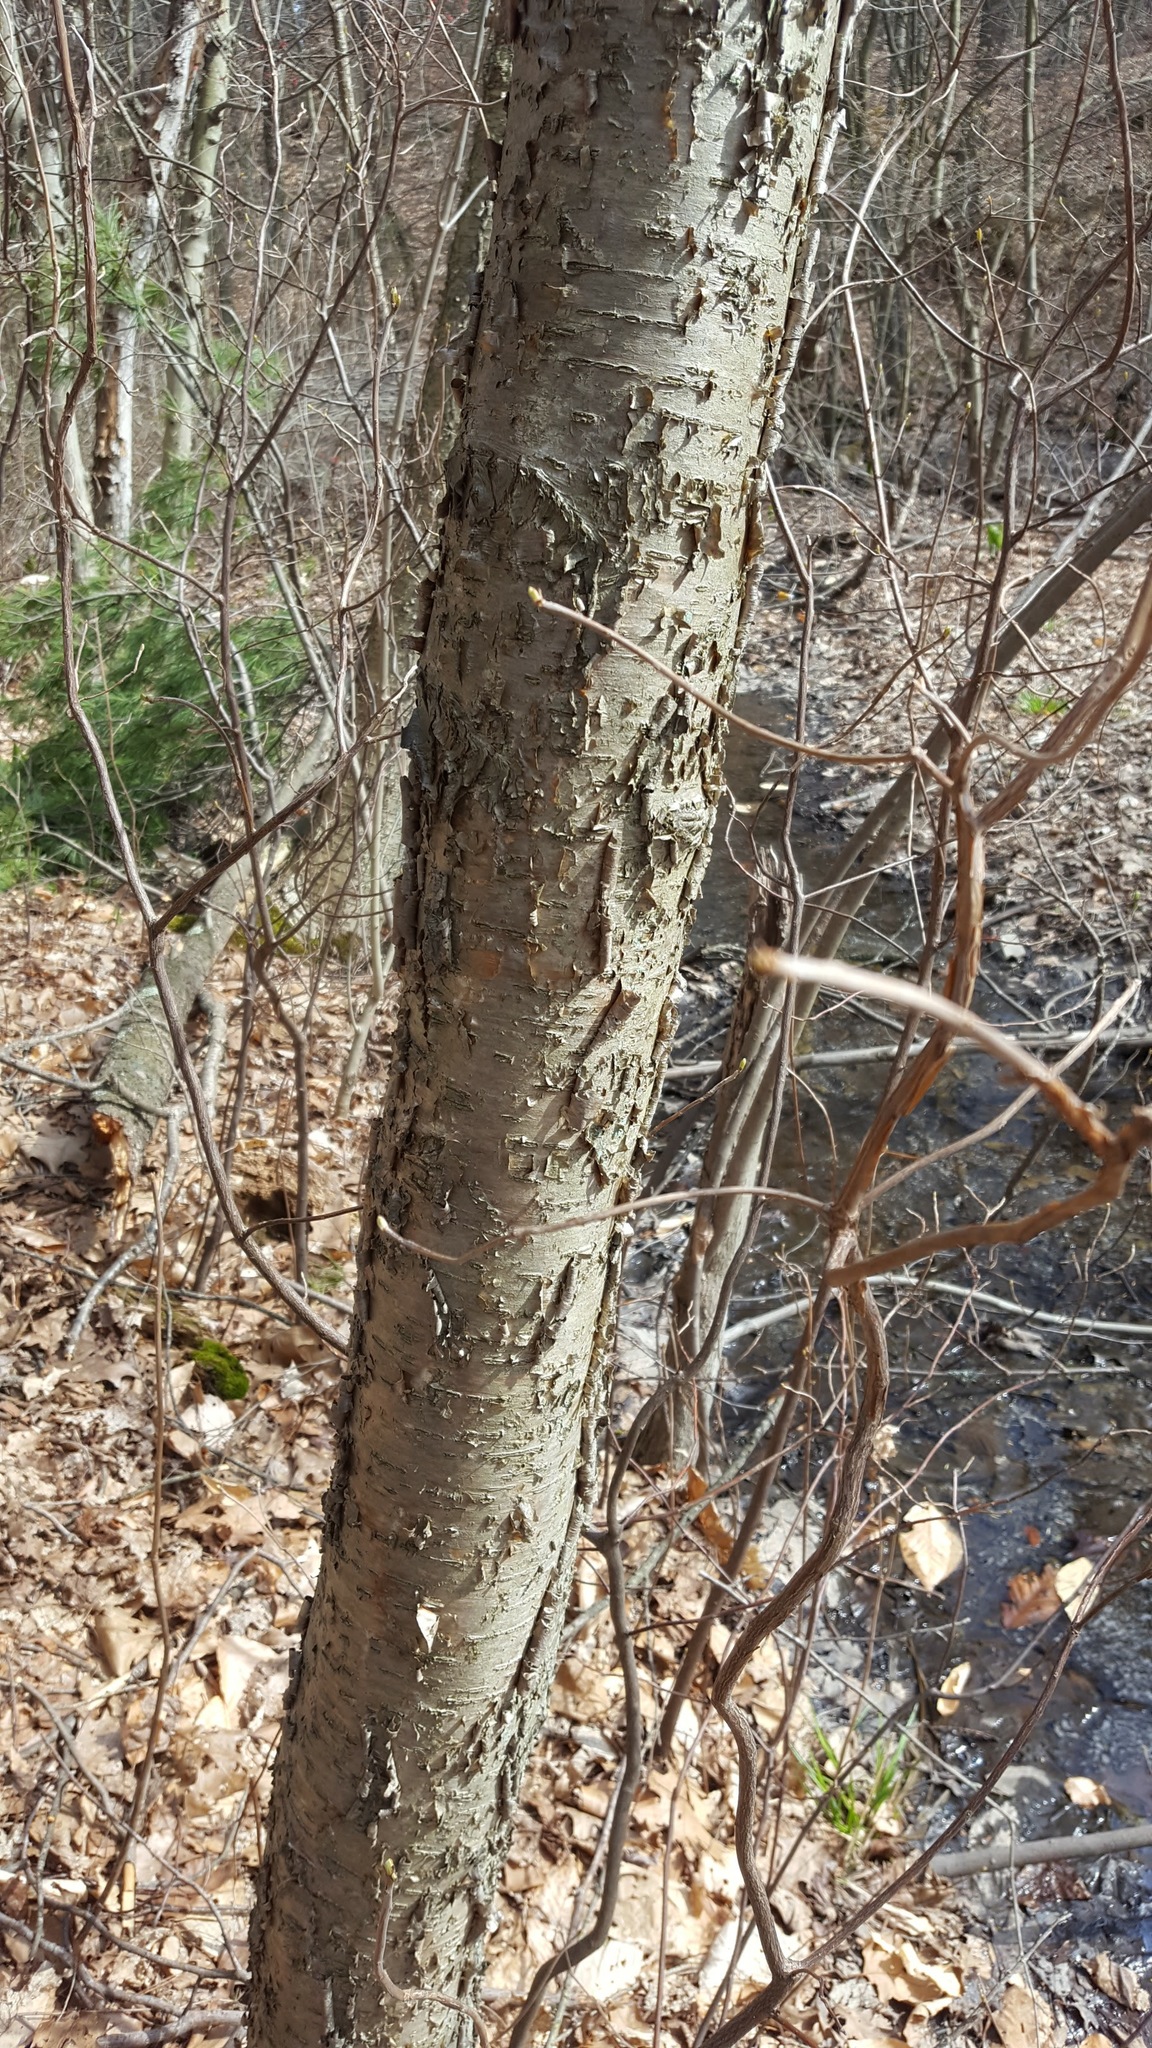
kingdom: Plantae
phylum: Tracheophyta
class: Magnoliopsida
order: Fagales
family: Betulaceae
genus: Betula
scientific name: Betula alleghaniensis
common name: Yellow birch
